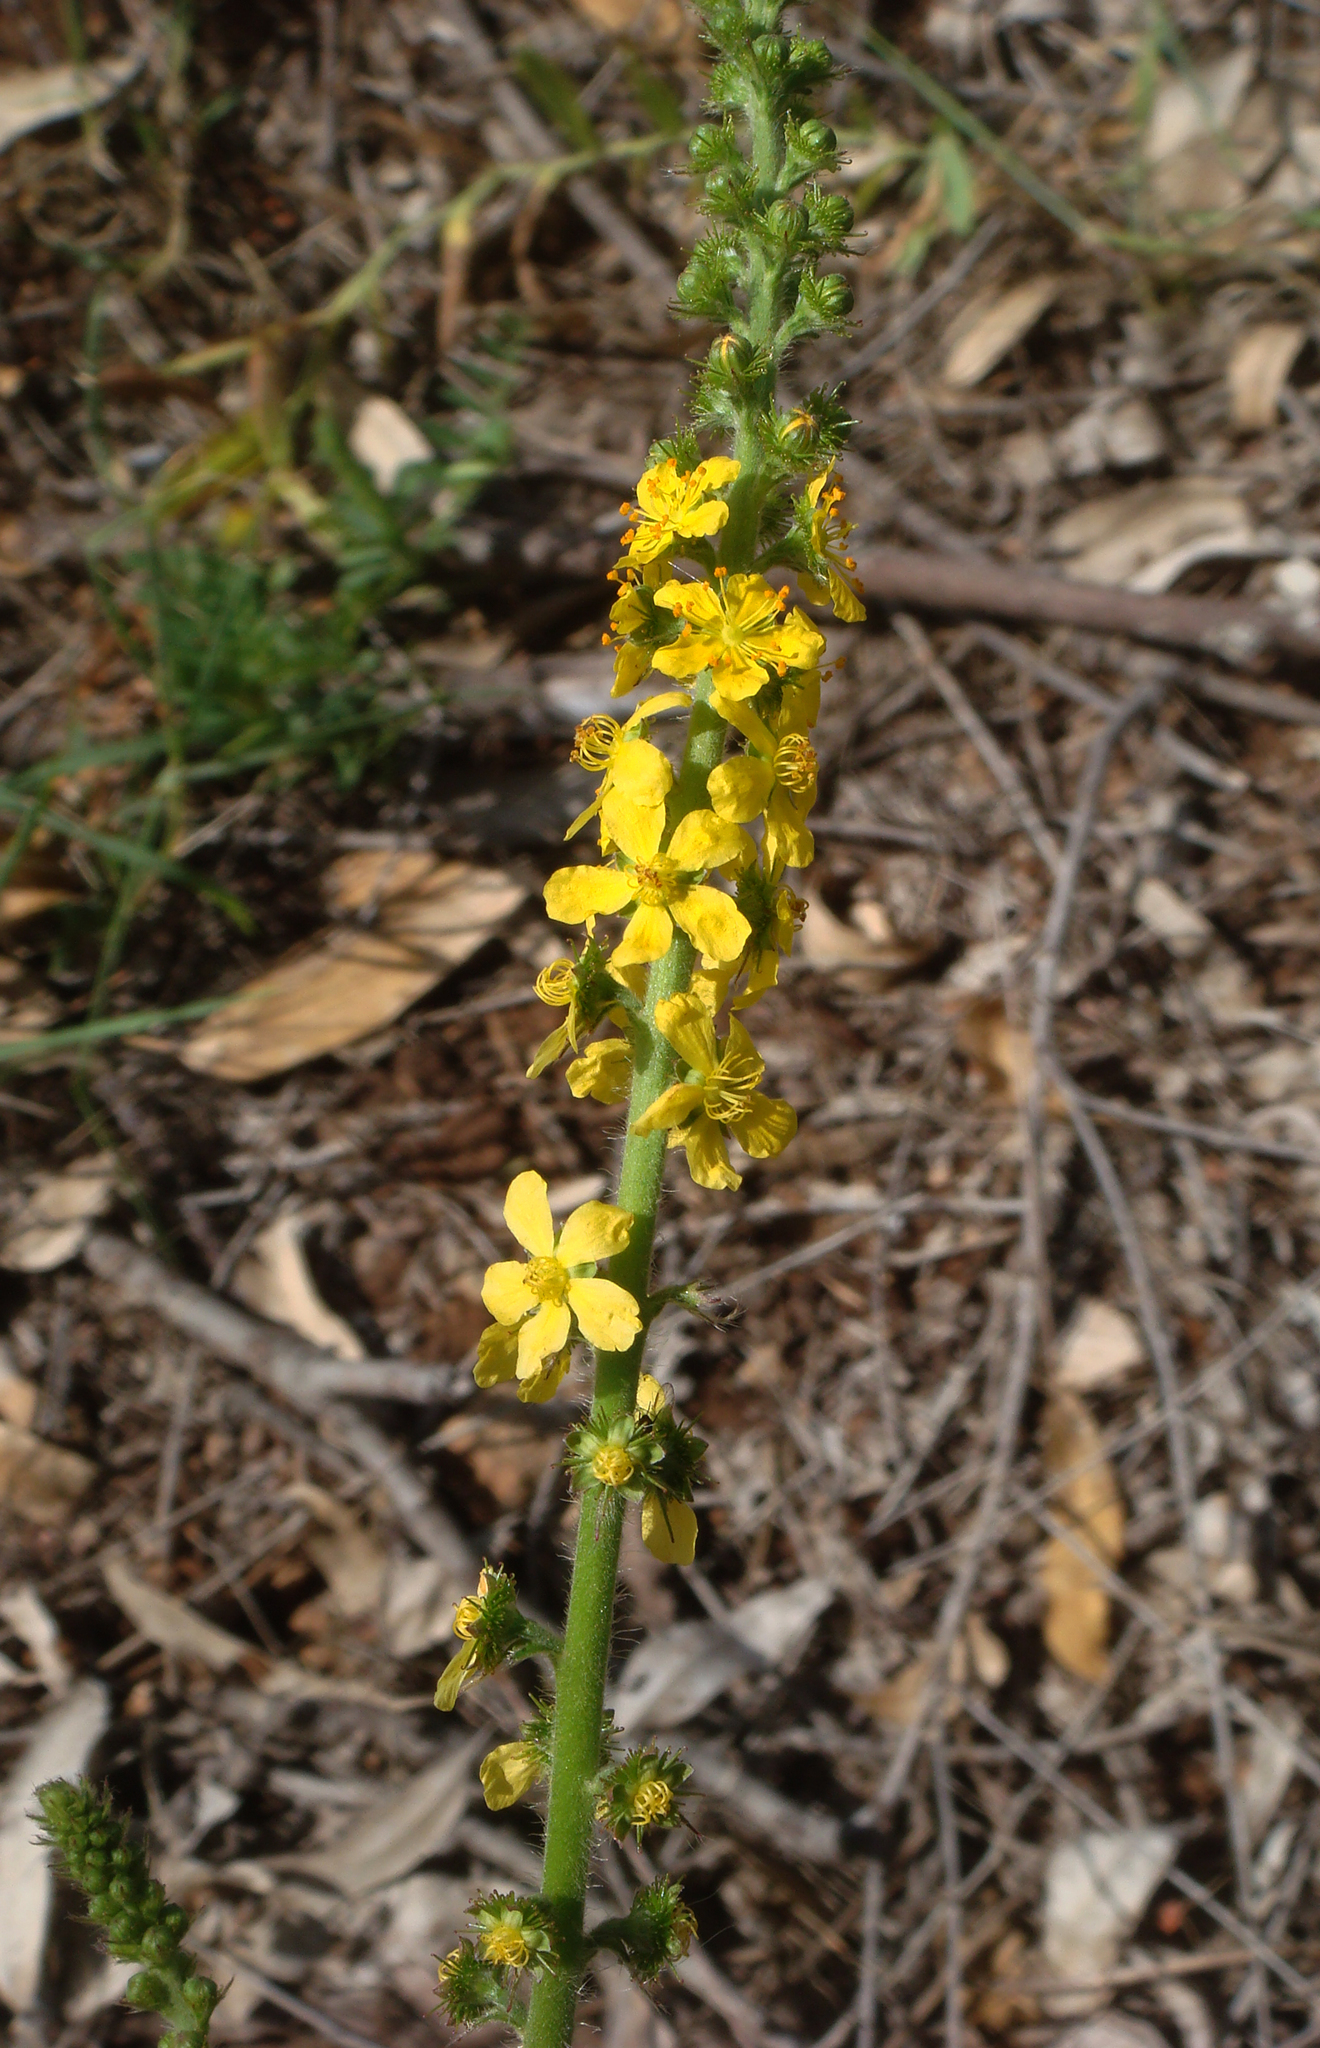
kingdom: Plantae
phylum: Tracheophyta
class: Magnoliopsida
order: Rosales
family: Rosaceae
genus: Agrimonia
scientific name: Agrimonia eupatoria
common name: Agrimony
